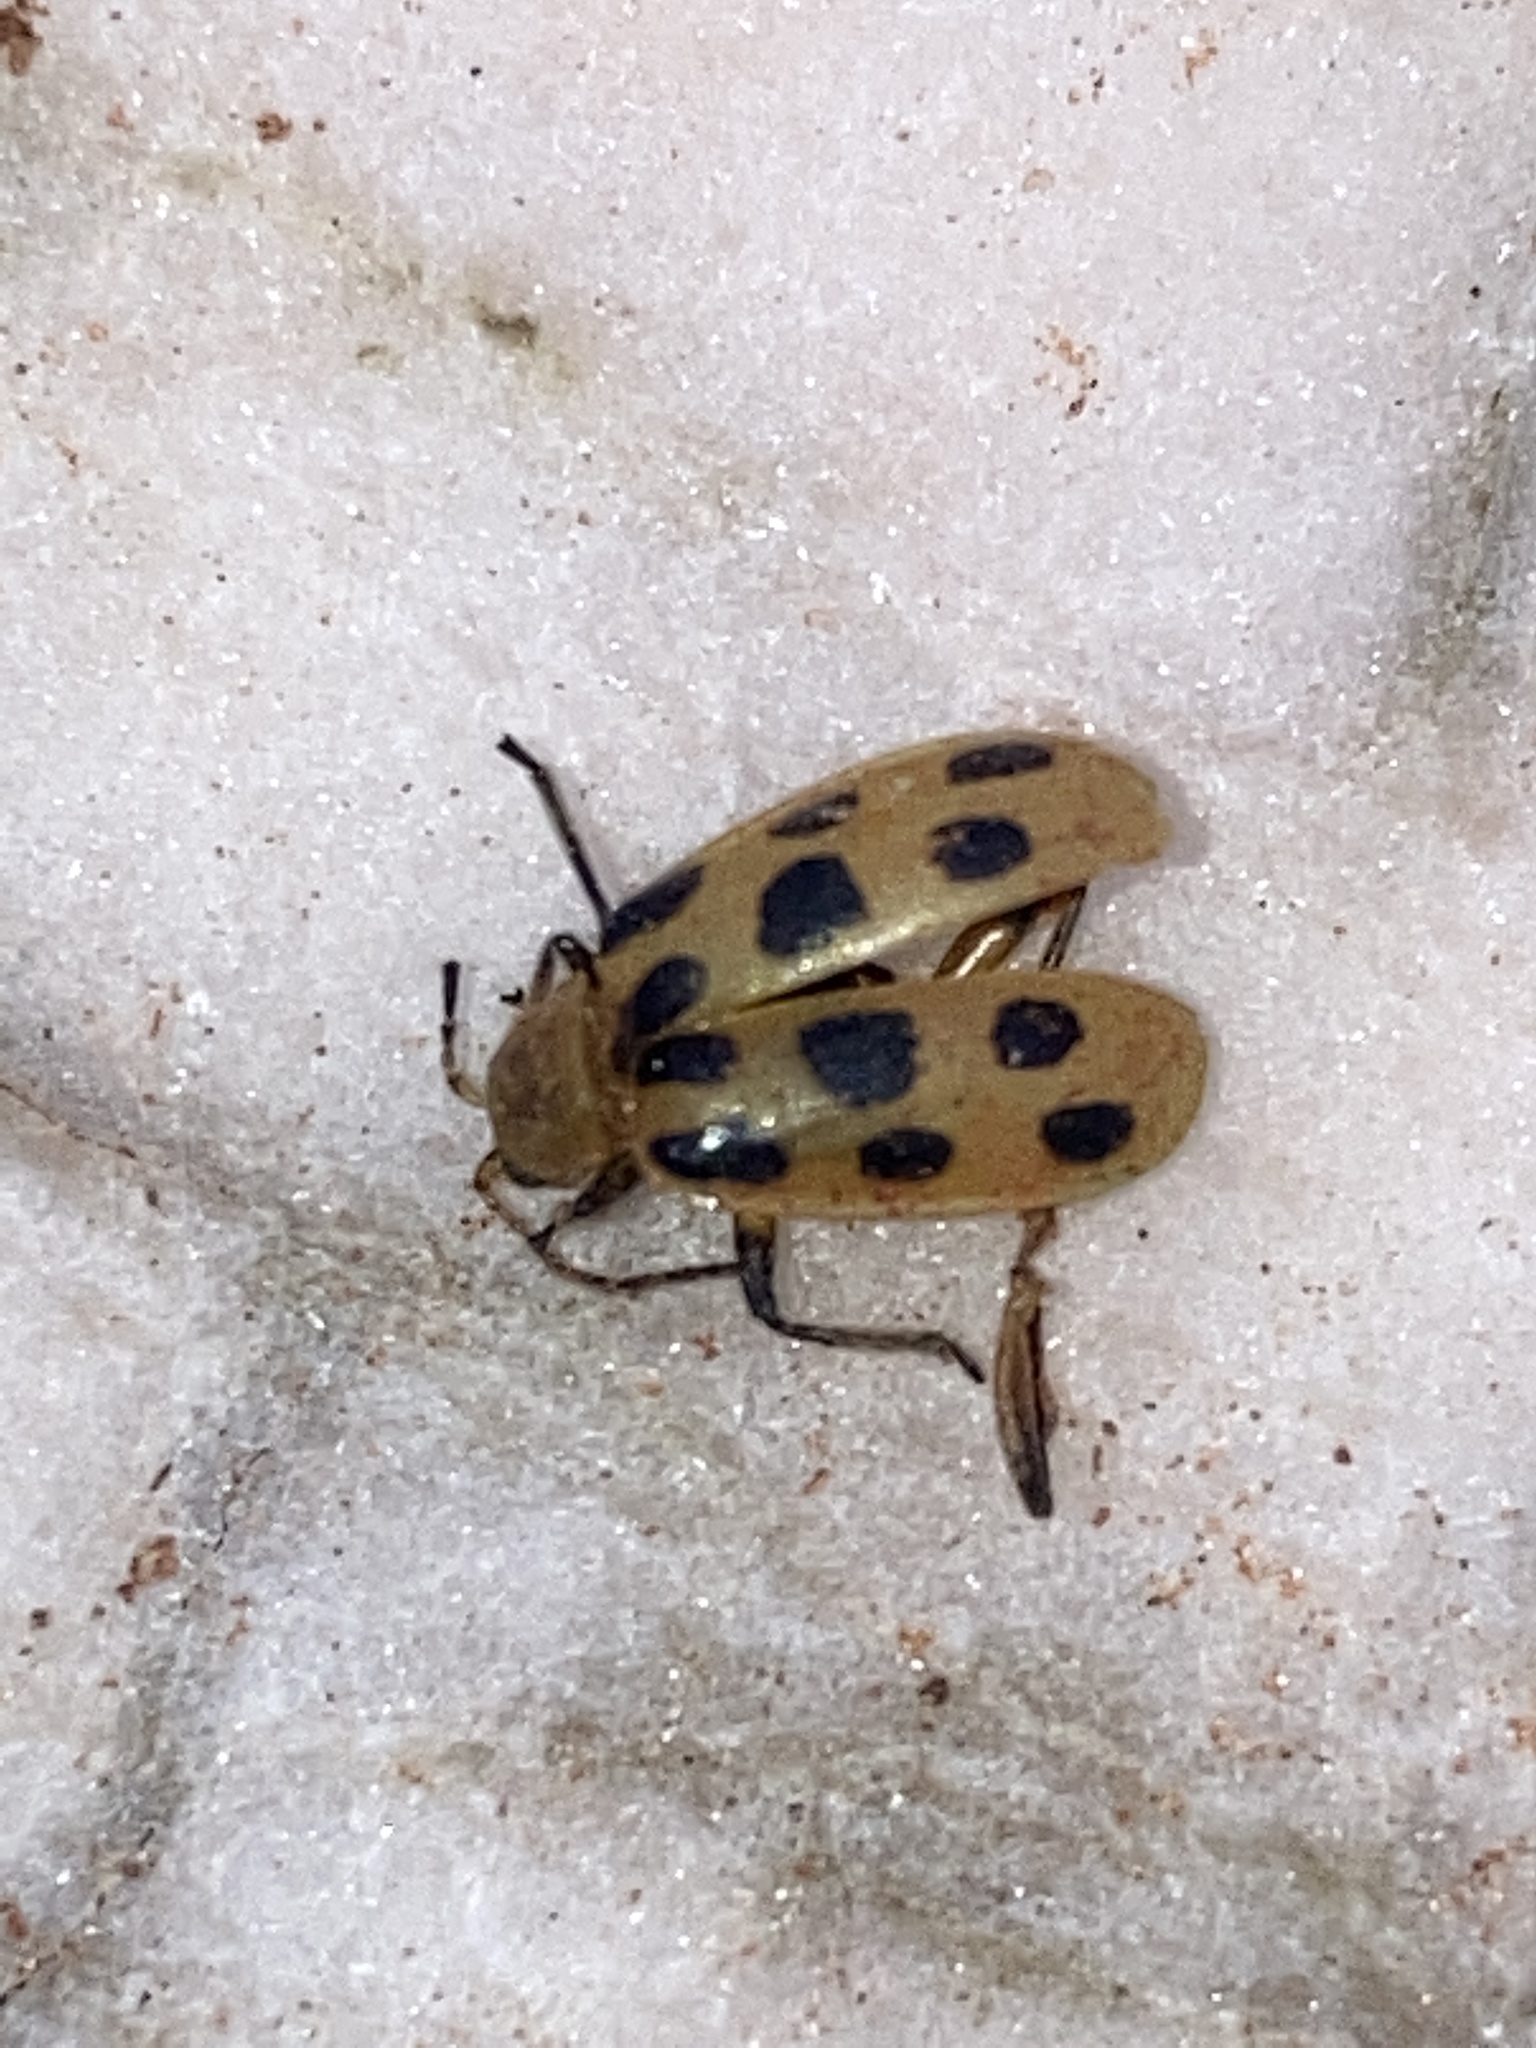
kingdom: Animalia
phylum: Arthropoda
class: Insecta
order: Coleoptera
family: Chrysomelidae
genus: Diabrotica
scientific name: Diabrotica undecimpunctata
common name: Spotted cucumber beetle
